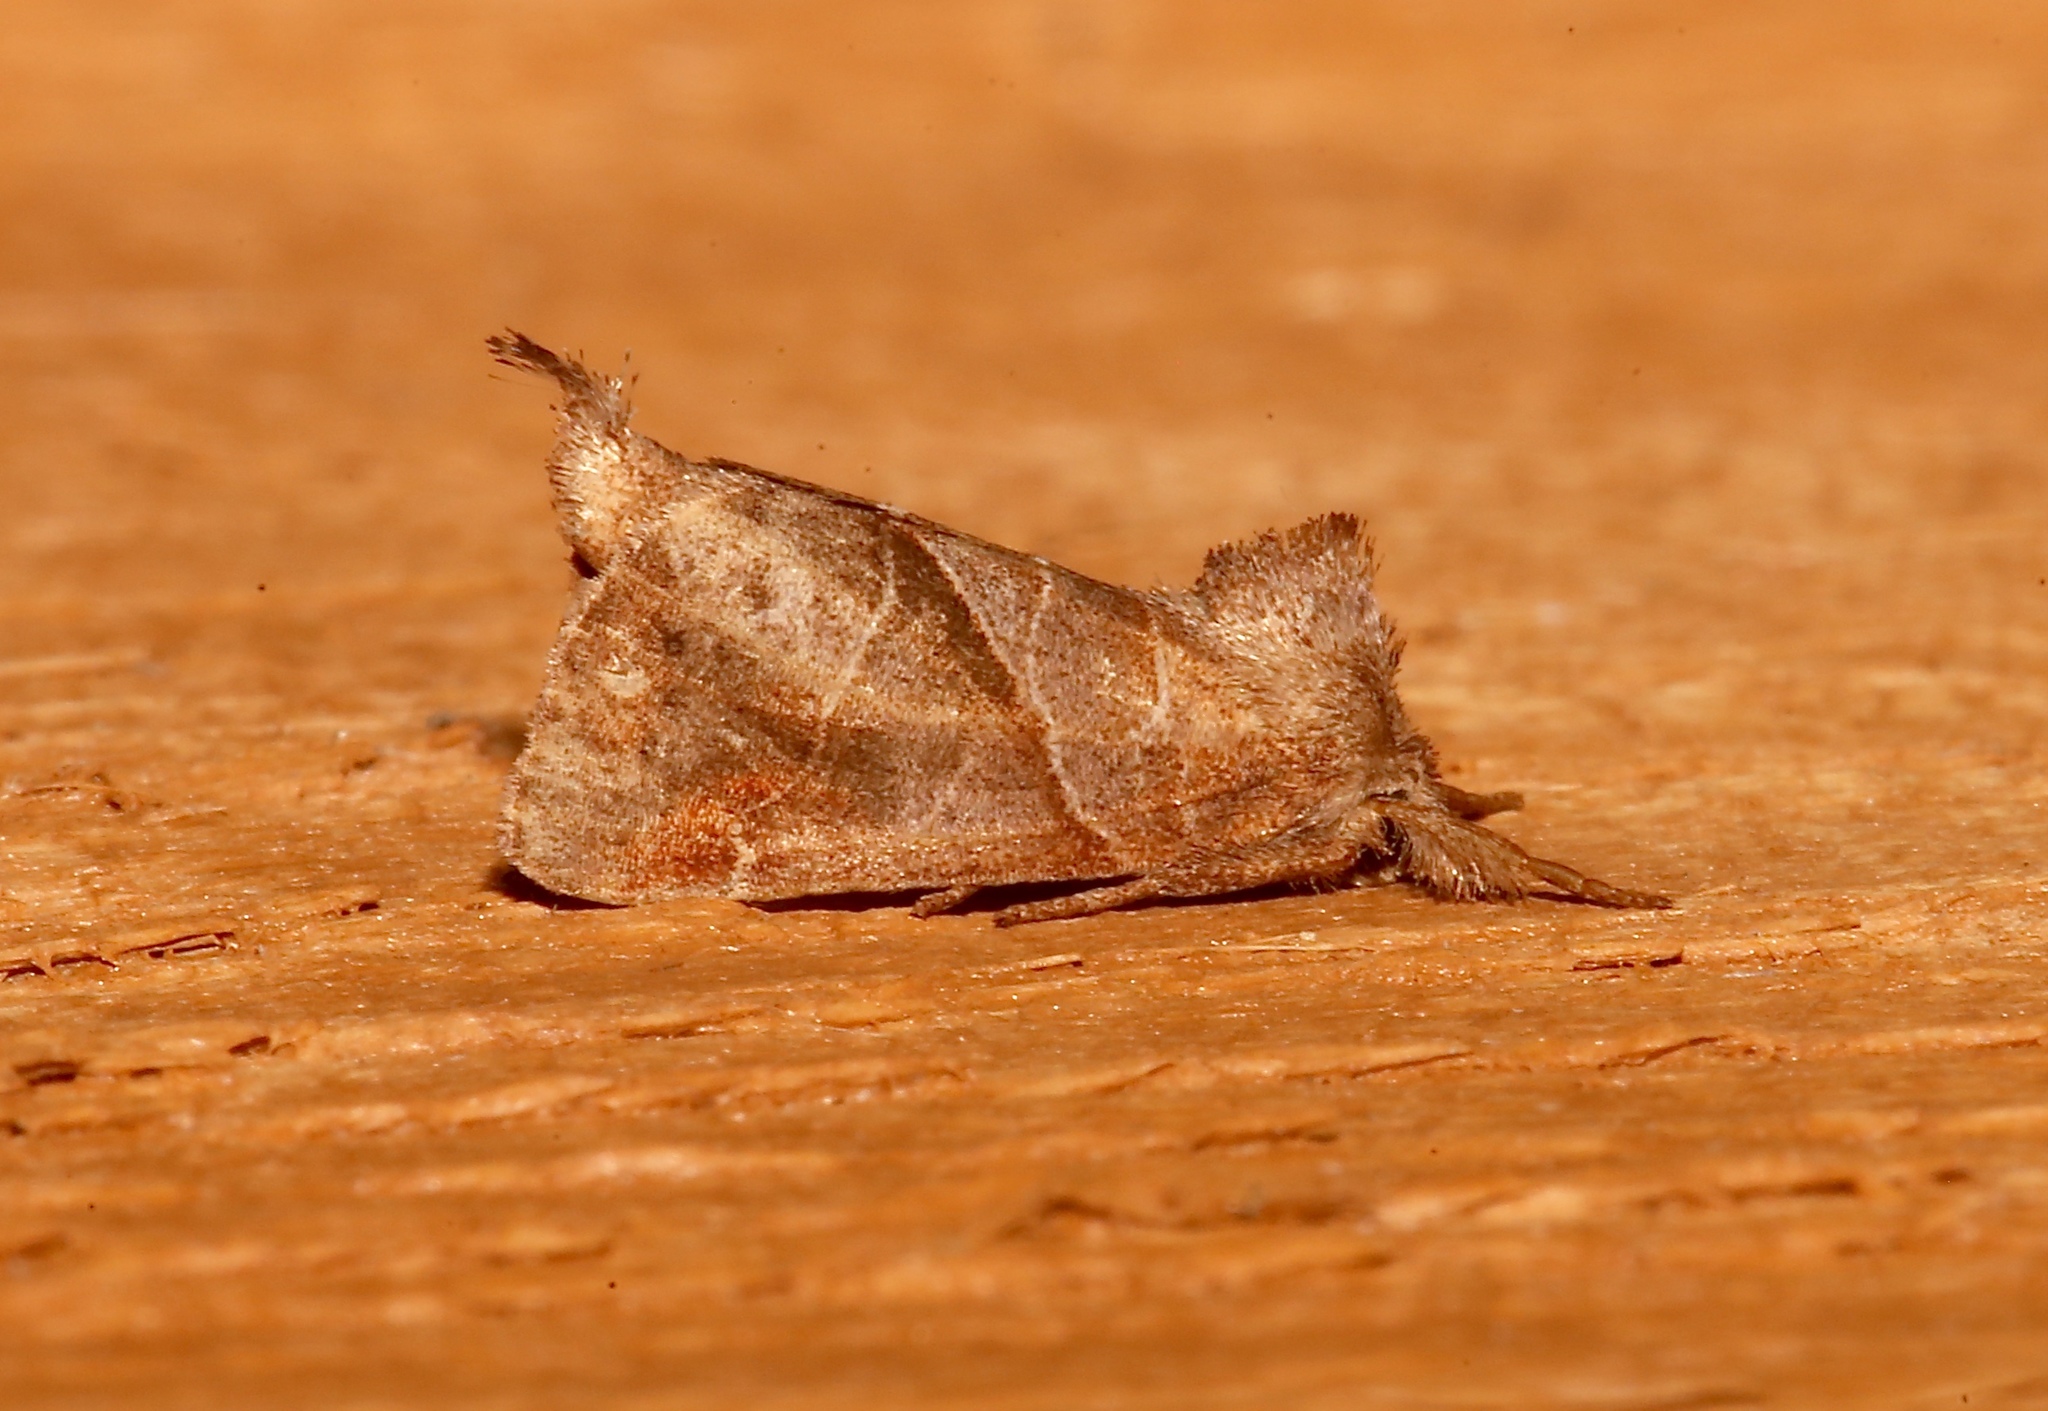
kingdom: Animalia
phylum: Arthropoda
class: Insecta
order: Lepidoptera
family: Notodontidae
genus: Clostera
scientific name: Clostera inclusa
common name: Angle-lined prominent
